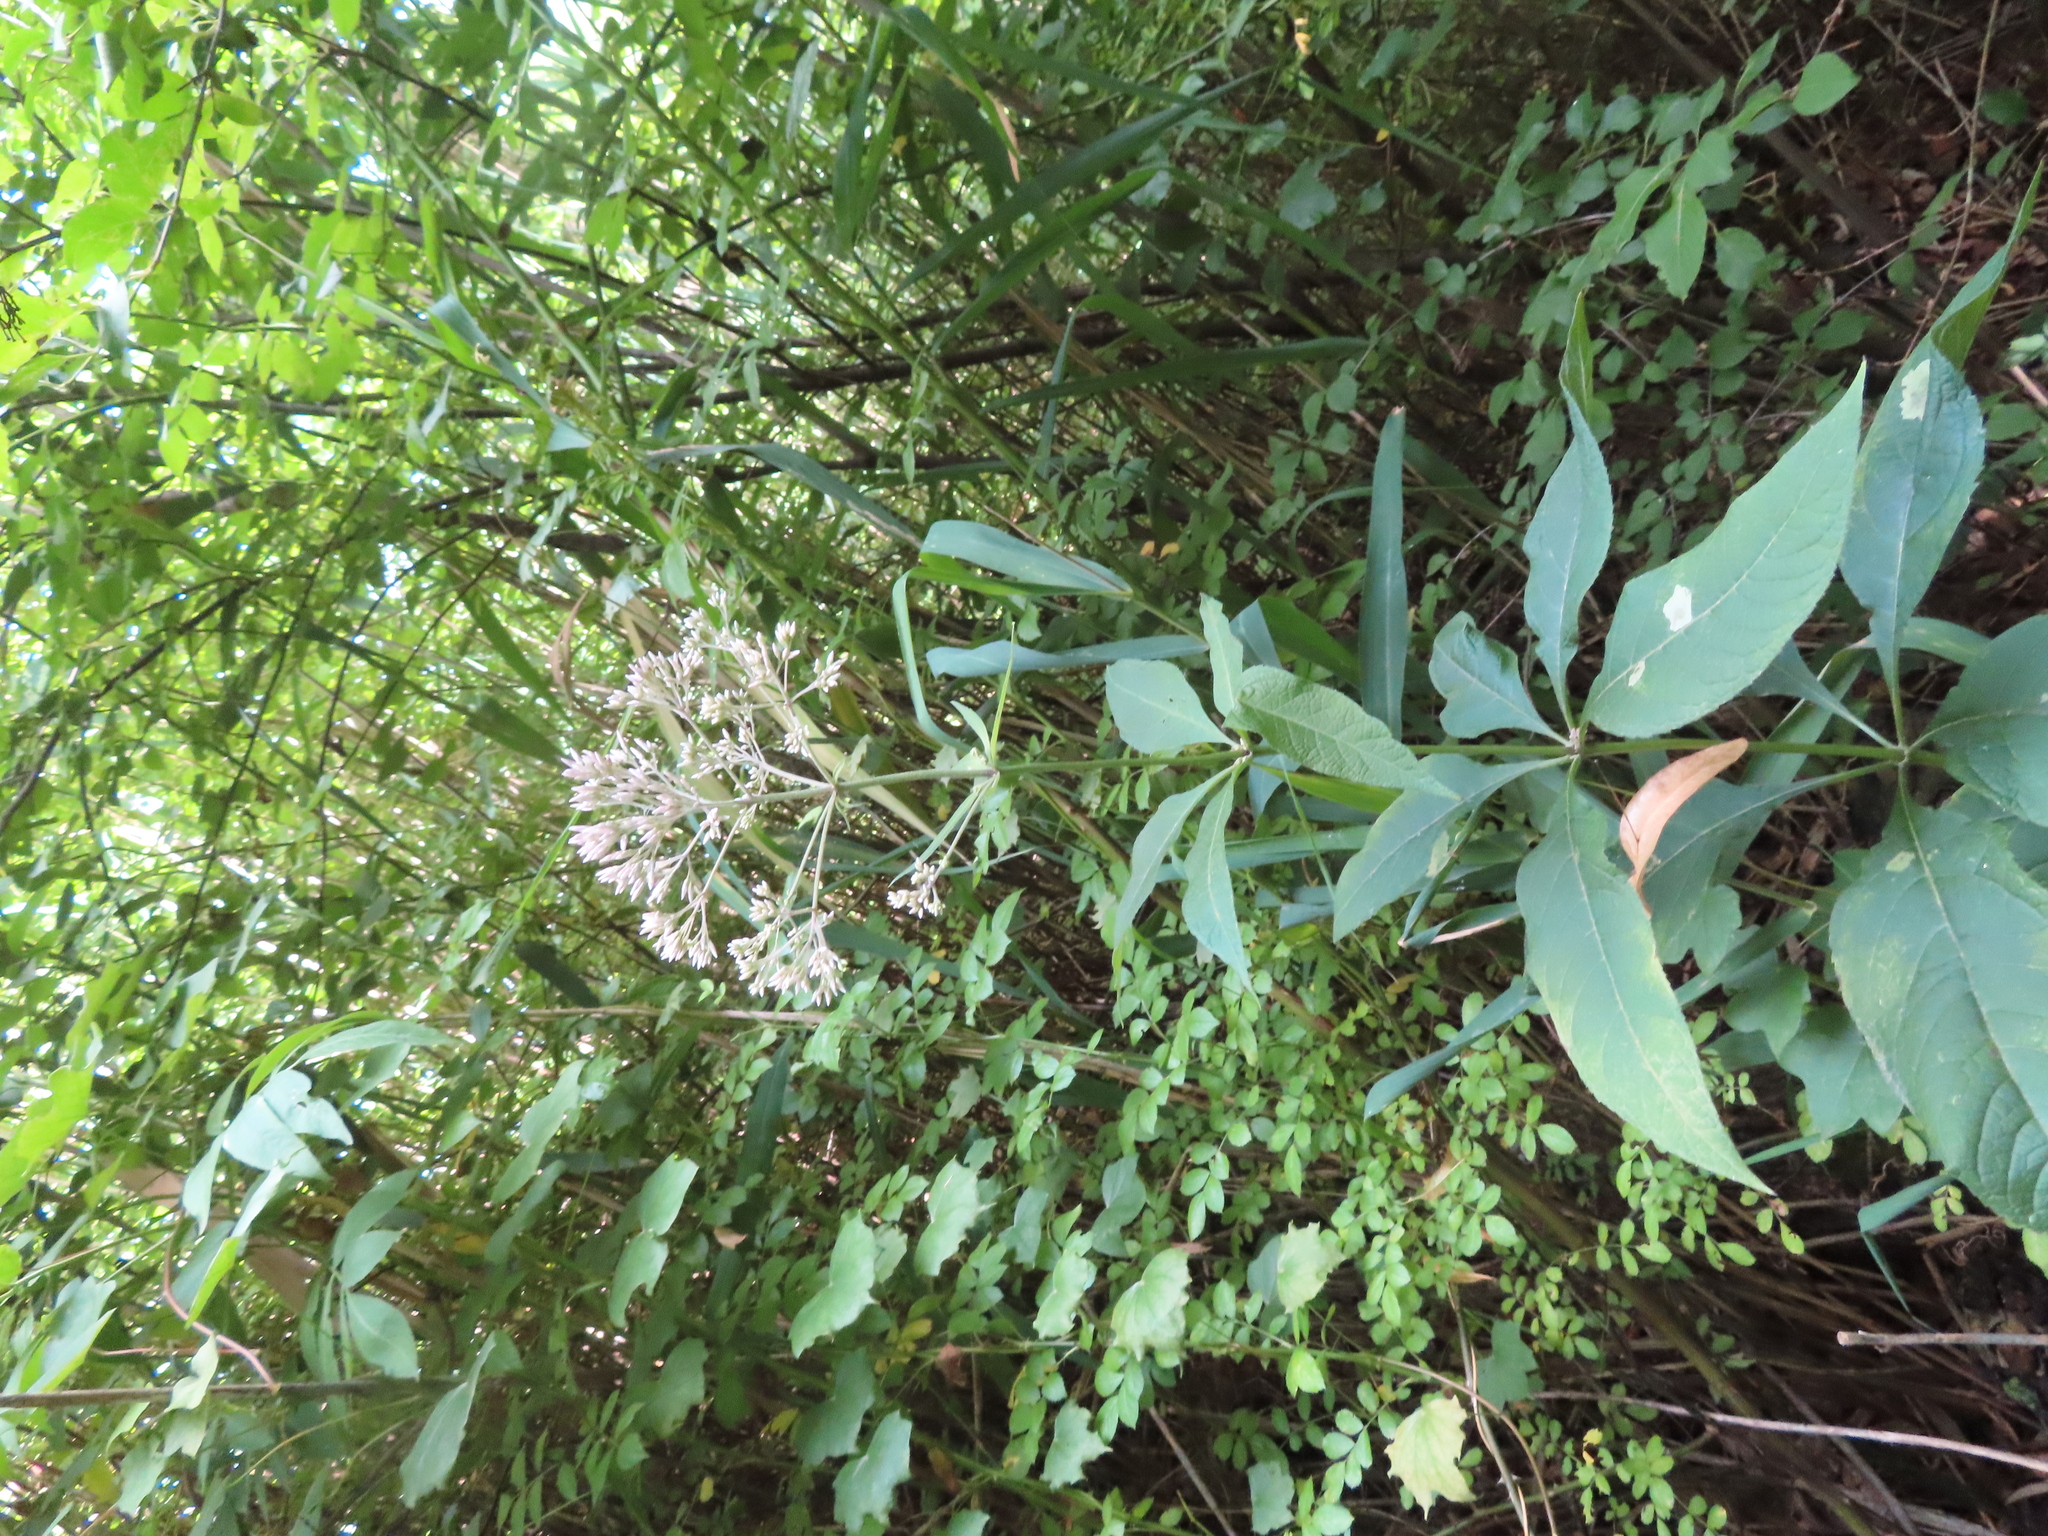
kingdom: Plantae
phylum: Tracheophyta
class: Magnoliopsida
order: Asterales
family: Asteraceae
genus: Eutrochium
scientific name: Eutrochium purpureum
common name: Gravelroot
